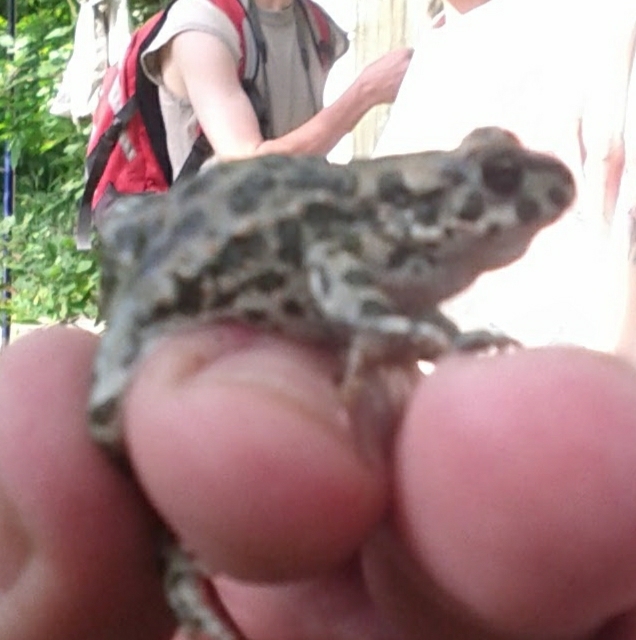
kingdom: Animalia
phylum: Chordata
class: Amphibia
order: Anura
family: Bufonidae
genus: Bufotes
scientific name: Bufotes viridis
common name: European green toad
